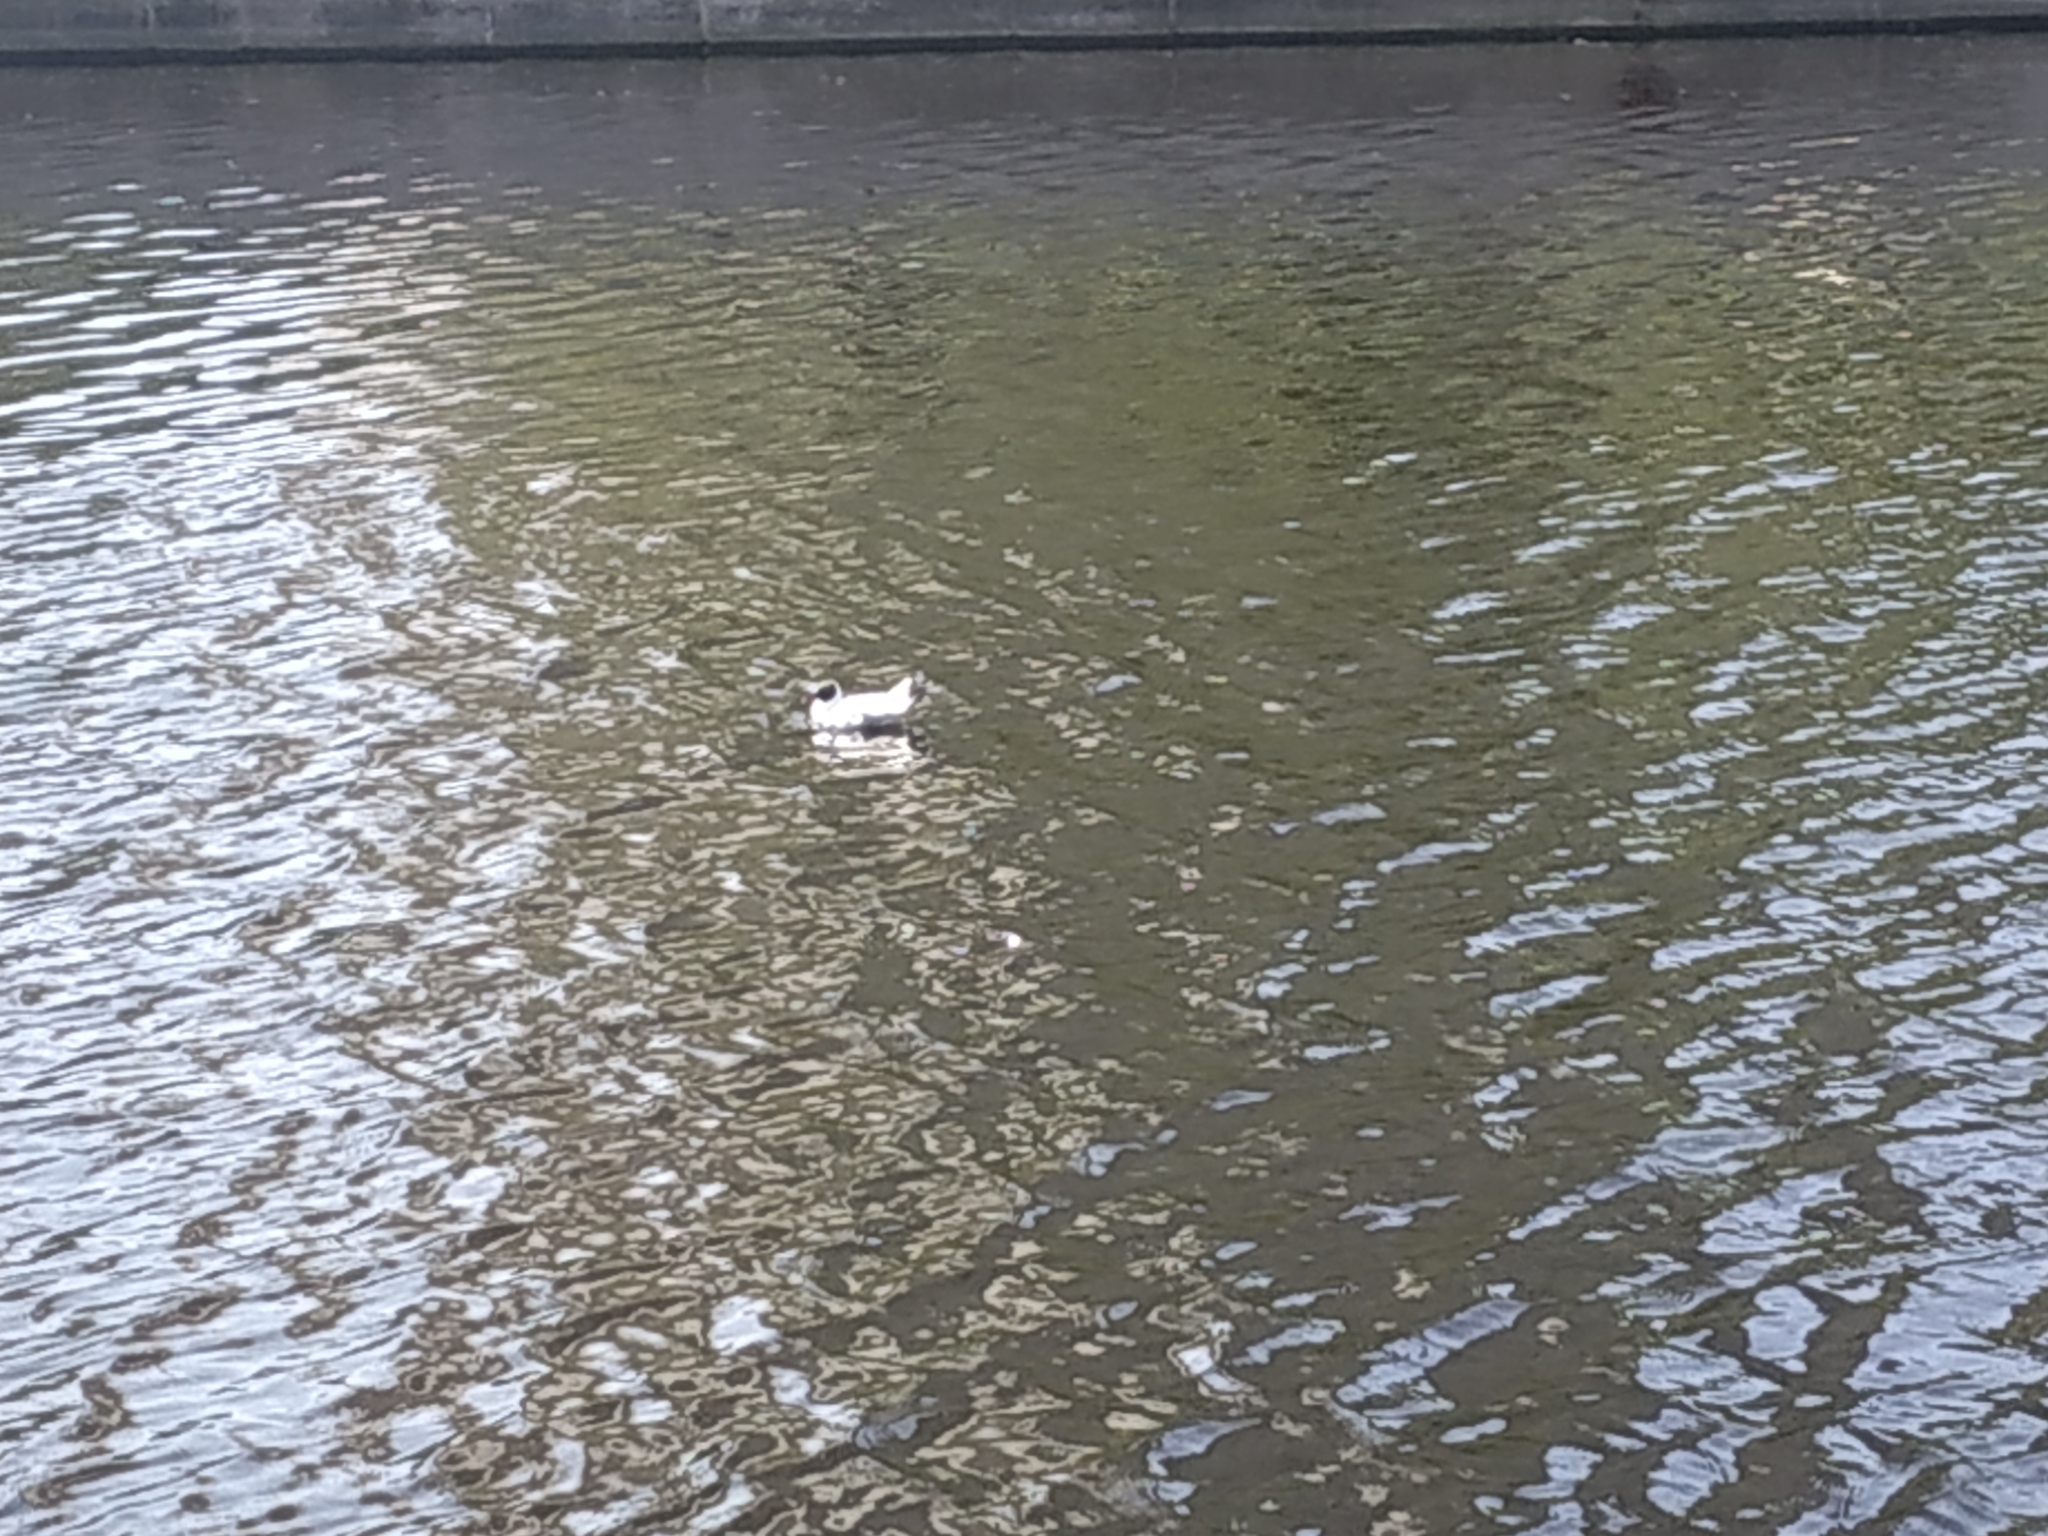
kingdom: Animalia
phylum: Chordata
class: Aves
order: Charadriiformes
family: Laridae
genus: Chroicocephalus
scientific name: Chroicocephalus ridibundus
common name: Black-headed gull
